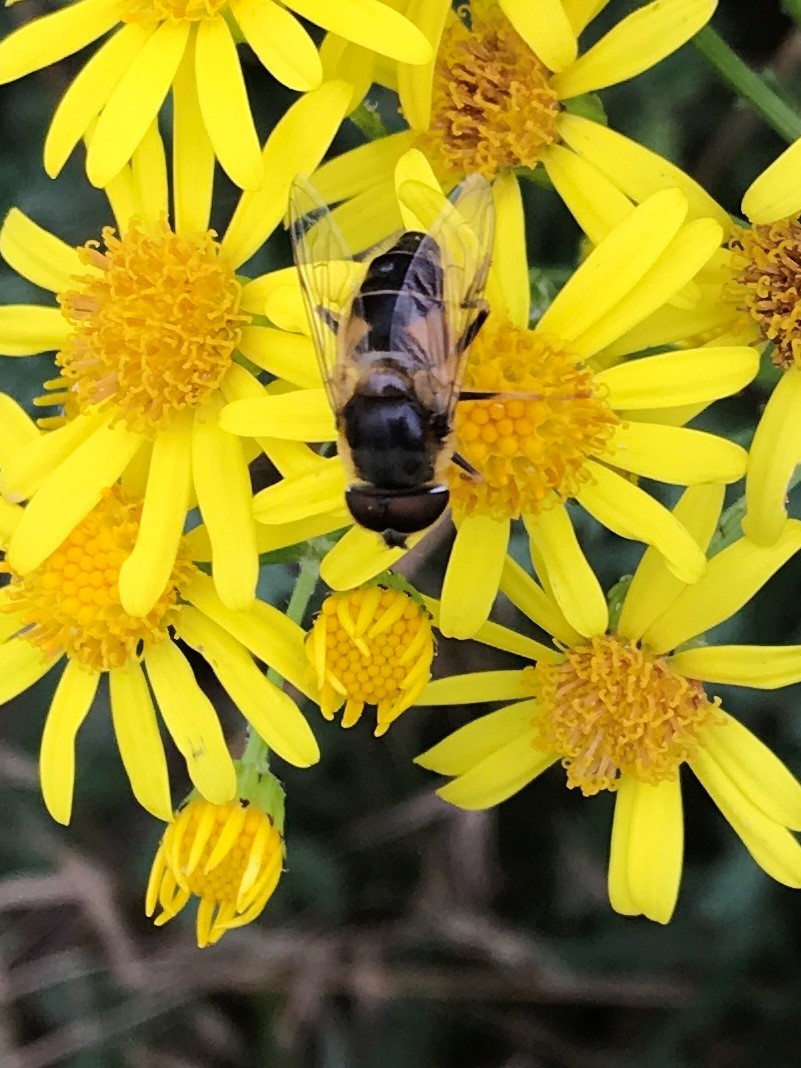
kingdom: Animalia
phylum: Arthropoda
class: Insecta
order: Diptera
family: Syrphidae
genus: Eristalis
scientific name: Eristalis pertinax
